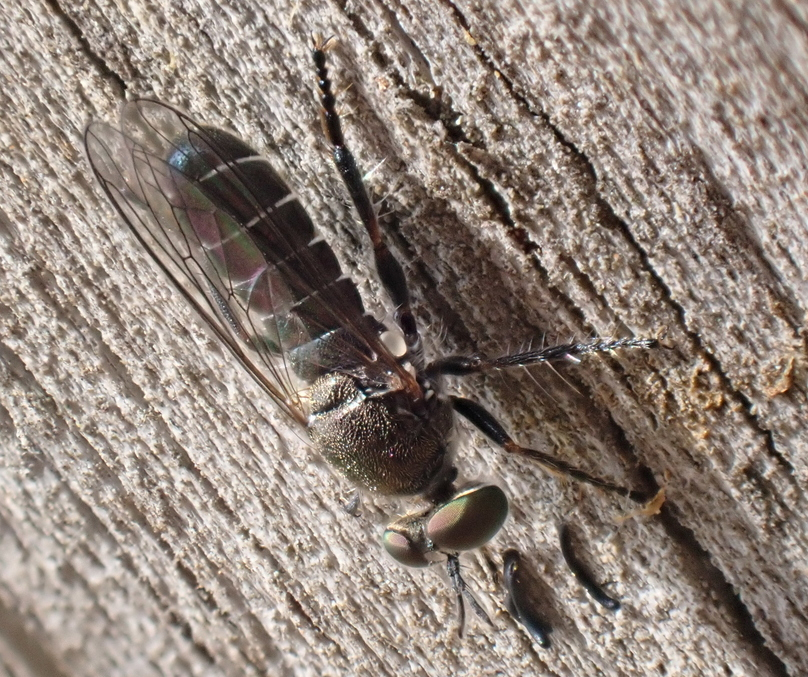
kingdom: Animalia
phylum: Arthropoda
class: Insecta
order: Diptera
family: Asilidae
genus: Atomosia
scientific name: Atomosia puella
